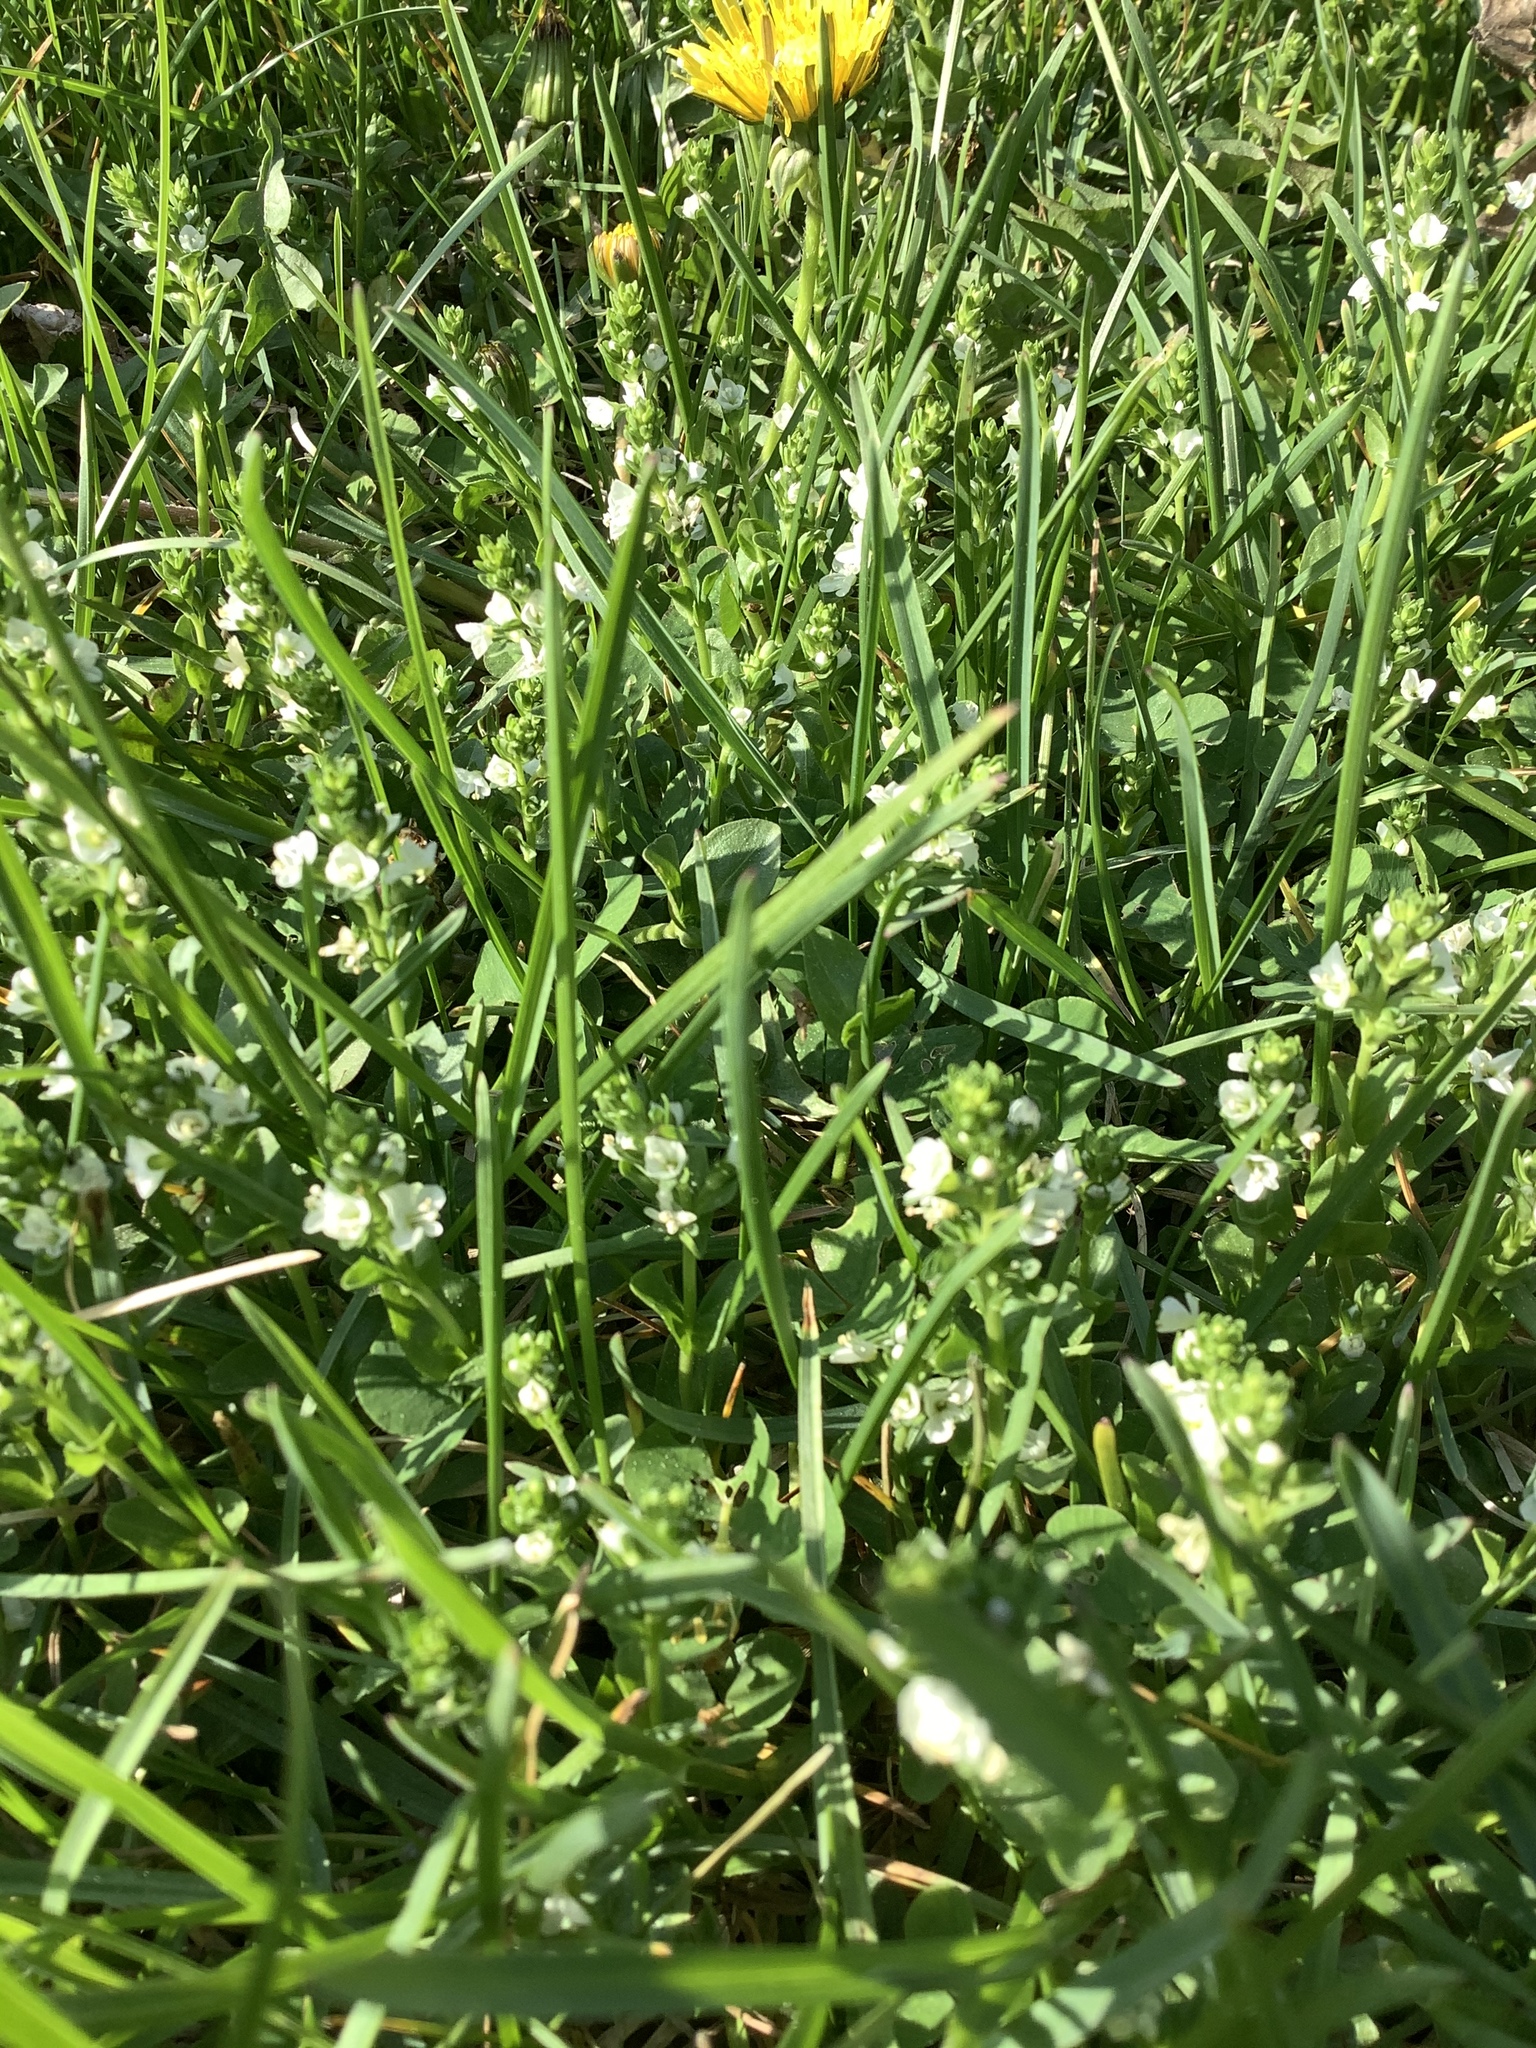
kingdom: Plantae
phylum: Tracheophyta
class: Magnoliopsida
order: Lamiales
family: Plantaginaceae
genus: Veronica
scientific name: Veronica serpyllifolia
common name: Thyme-leaved speedwell
